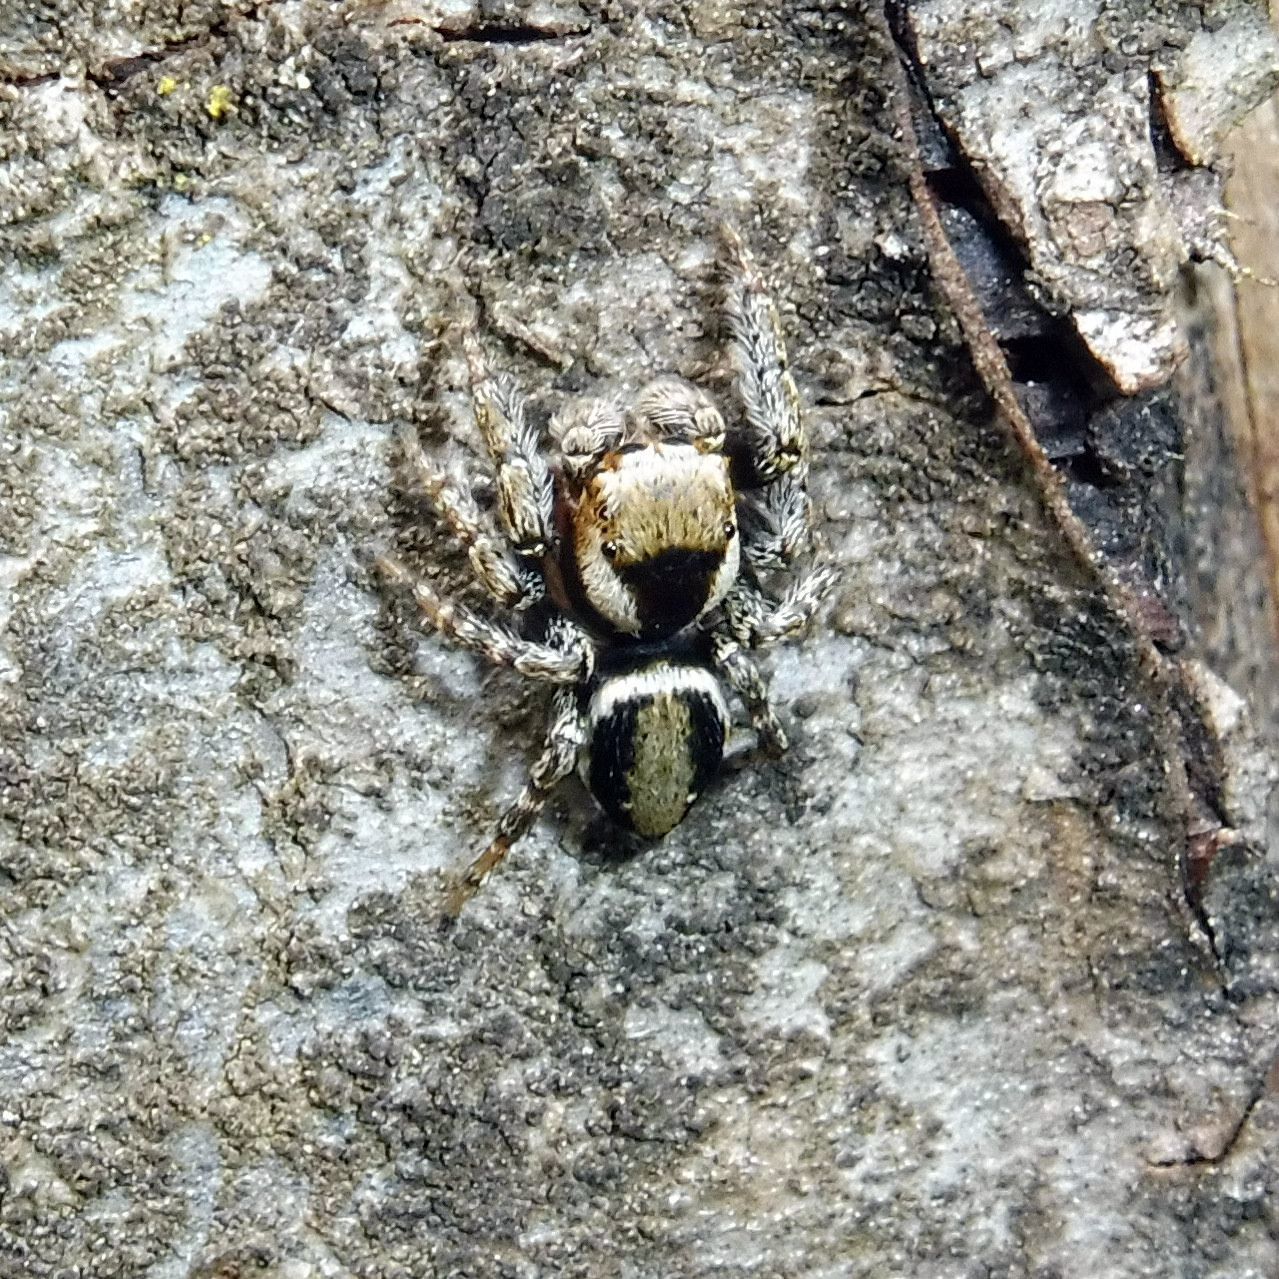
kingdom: Animalia
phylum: Arthropoda
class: Arachnida
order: Araneae
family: Salticidae
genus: Evarcha
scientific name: Evarcha falcata
